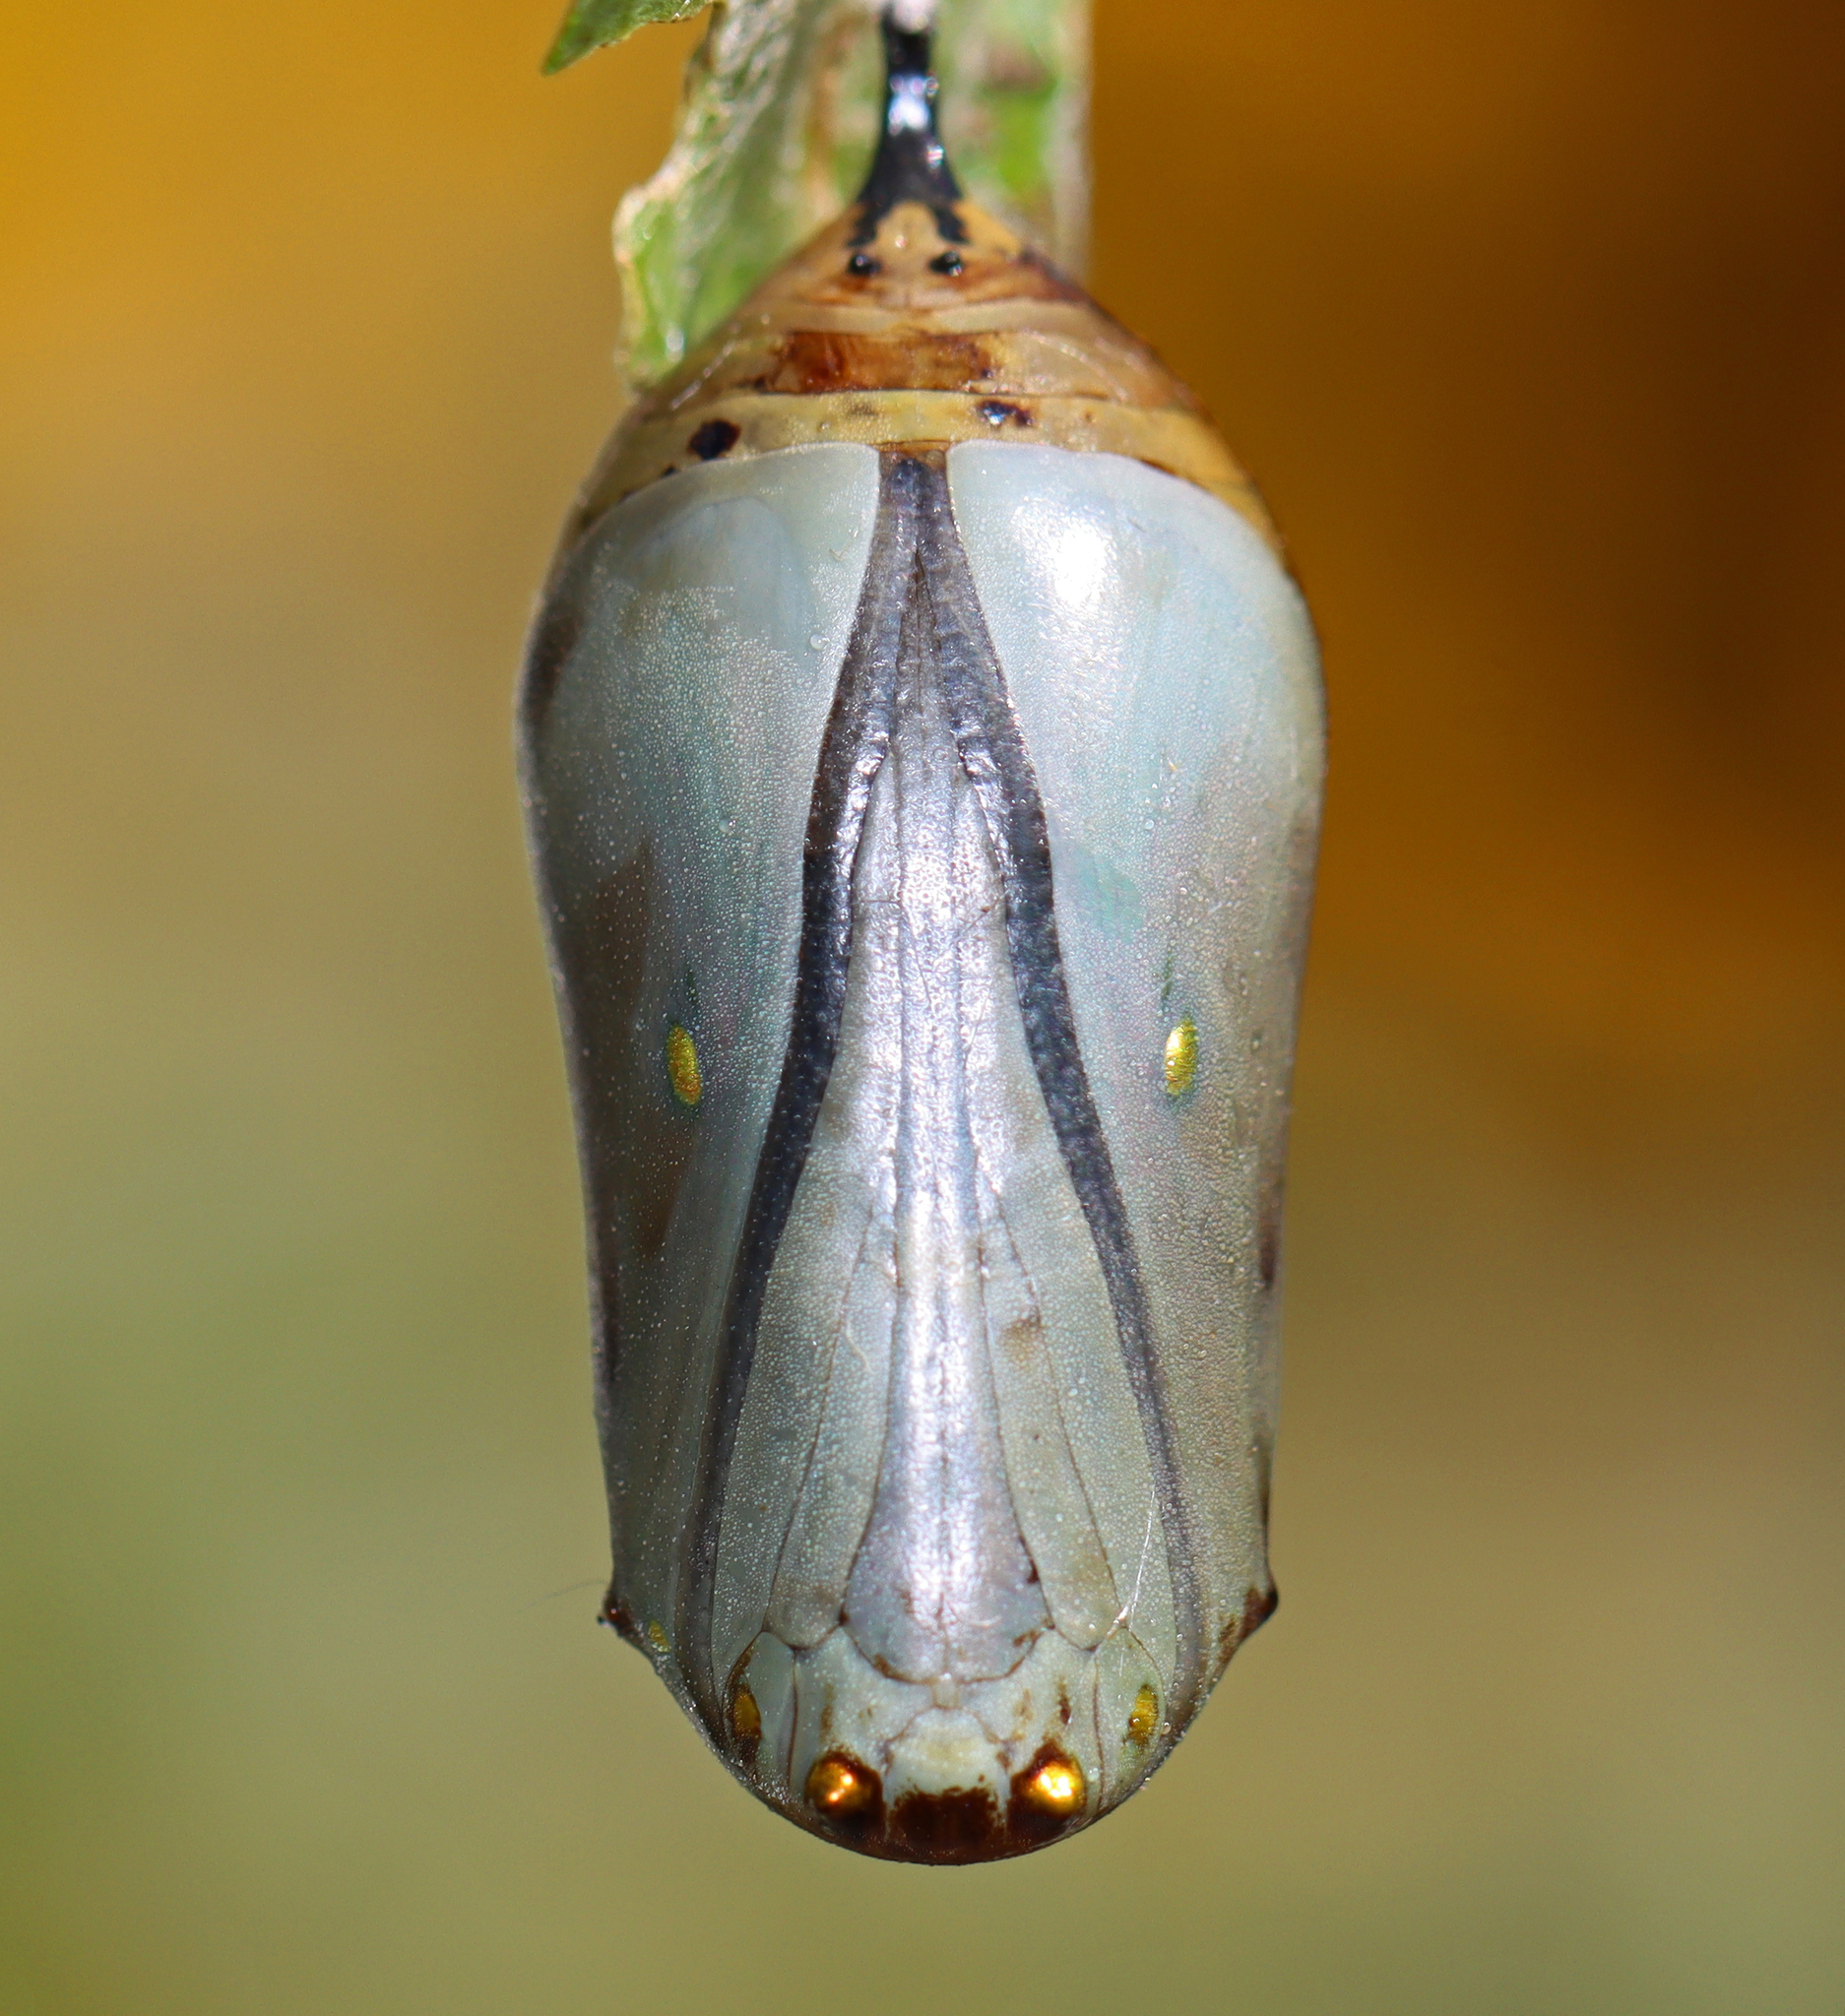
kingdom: Animalia
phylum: Arthropoda
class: Insecta
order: Lepidoptera
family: Nymphalidae
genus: Danaus
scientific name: Danaus plexippus
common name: Monarch
